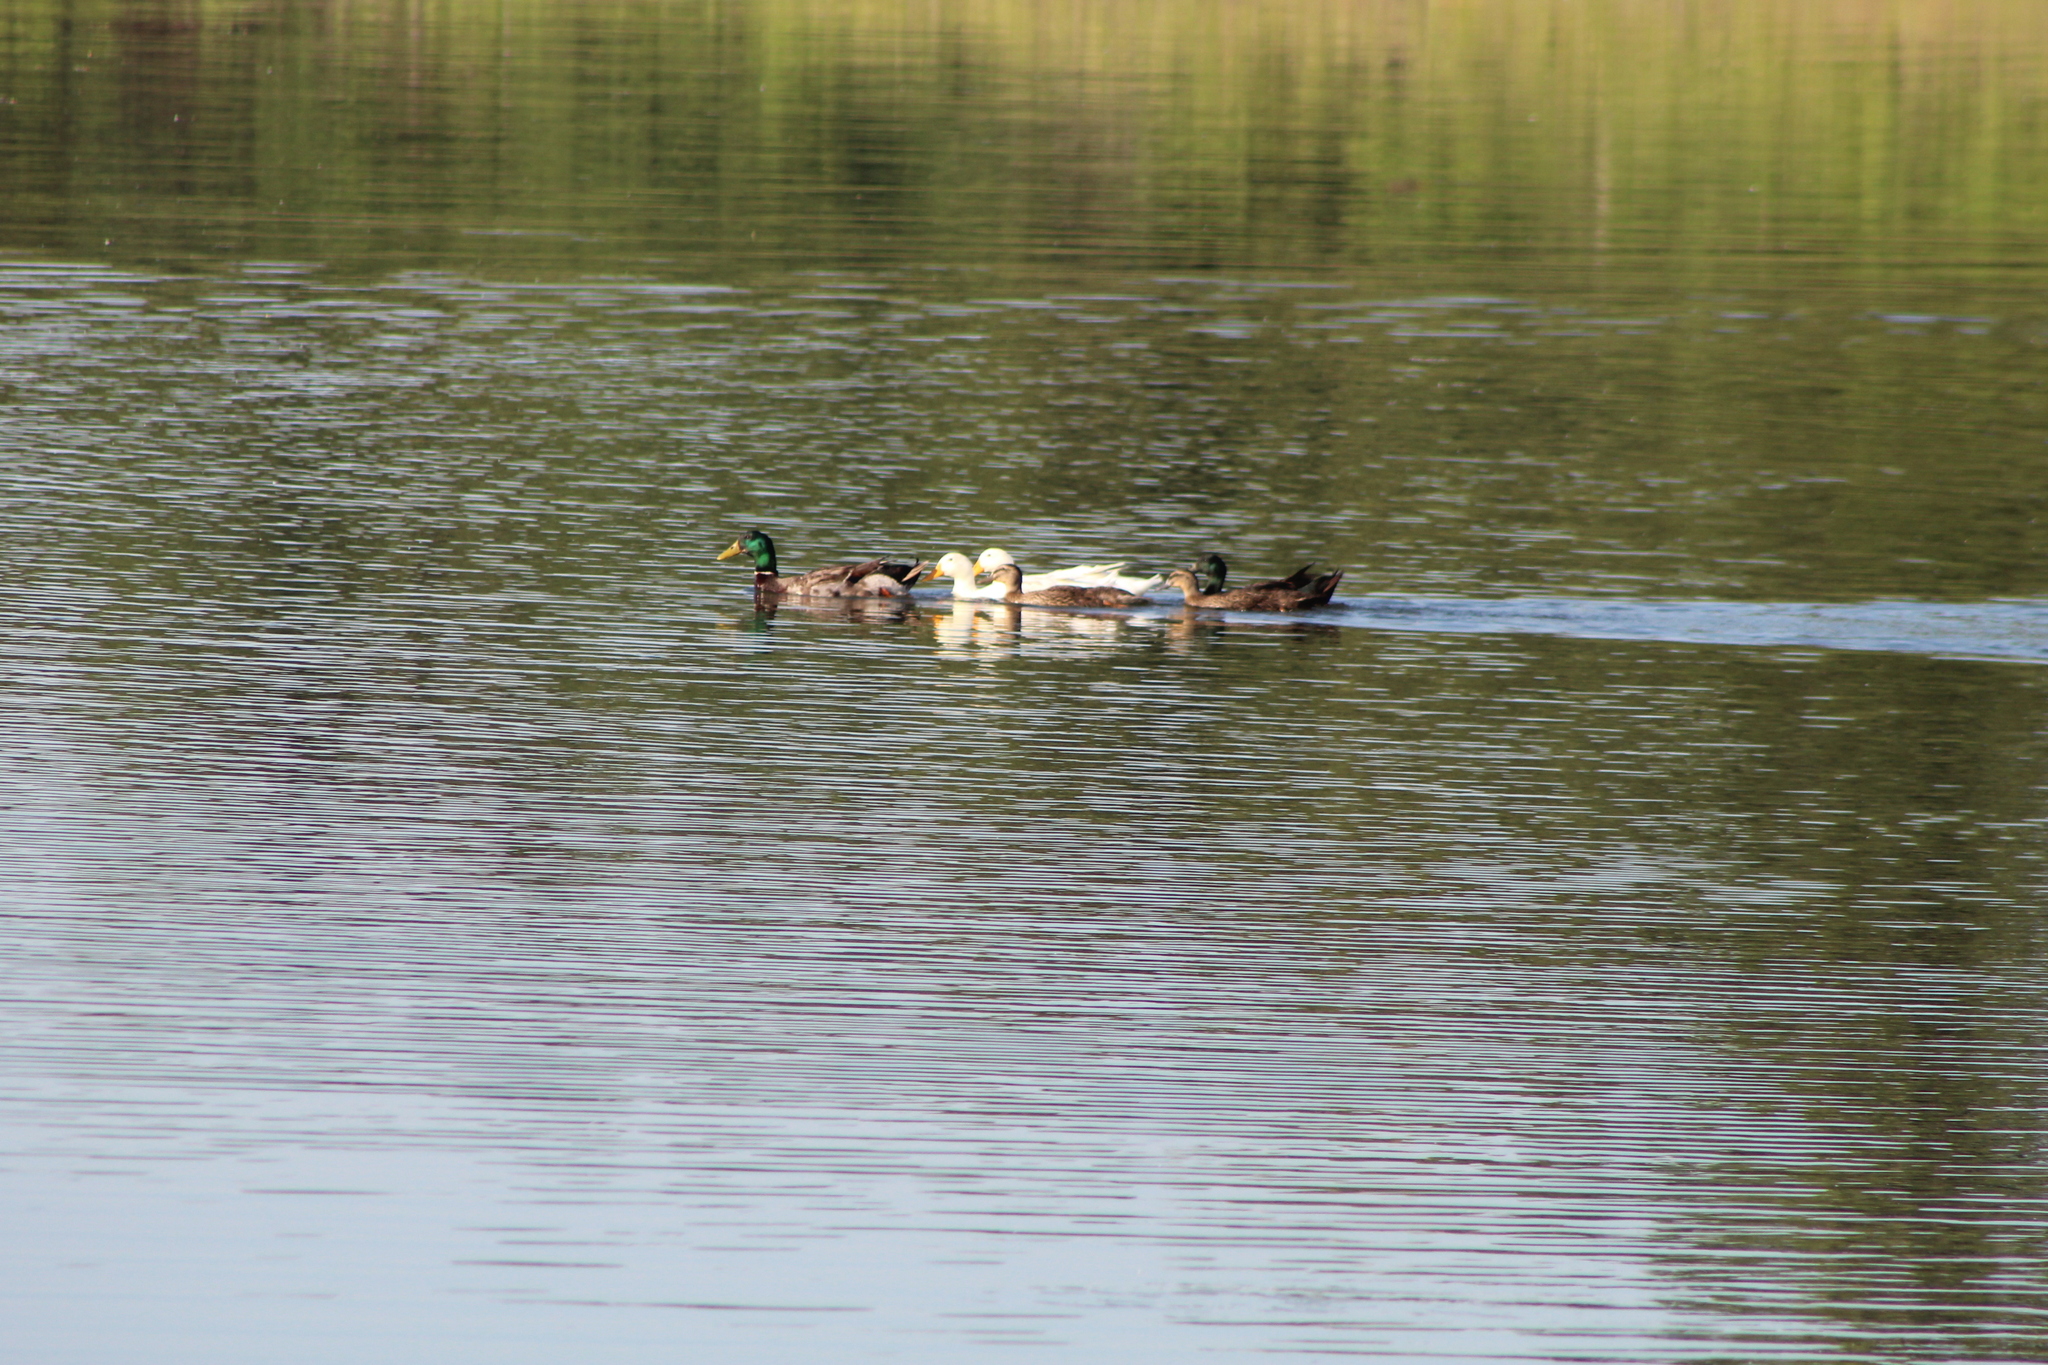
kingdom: Animalia
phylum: Chordata
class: Aves
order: Anseriformes
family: Anatidae
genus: Anas
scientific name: Anas platyrhynchos
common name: Mallard
